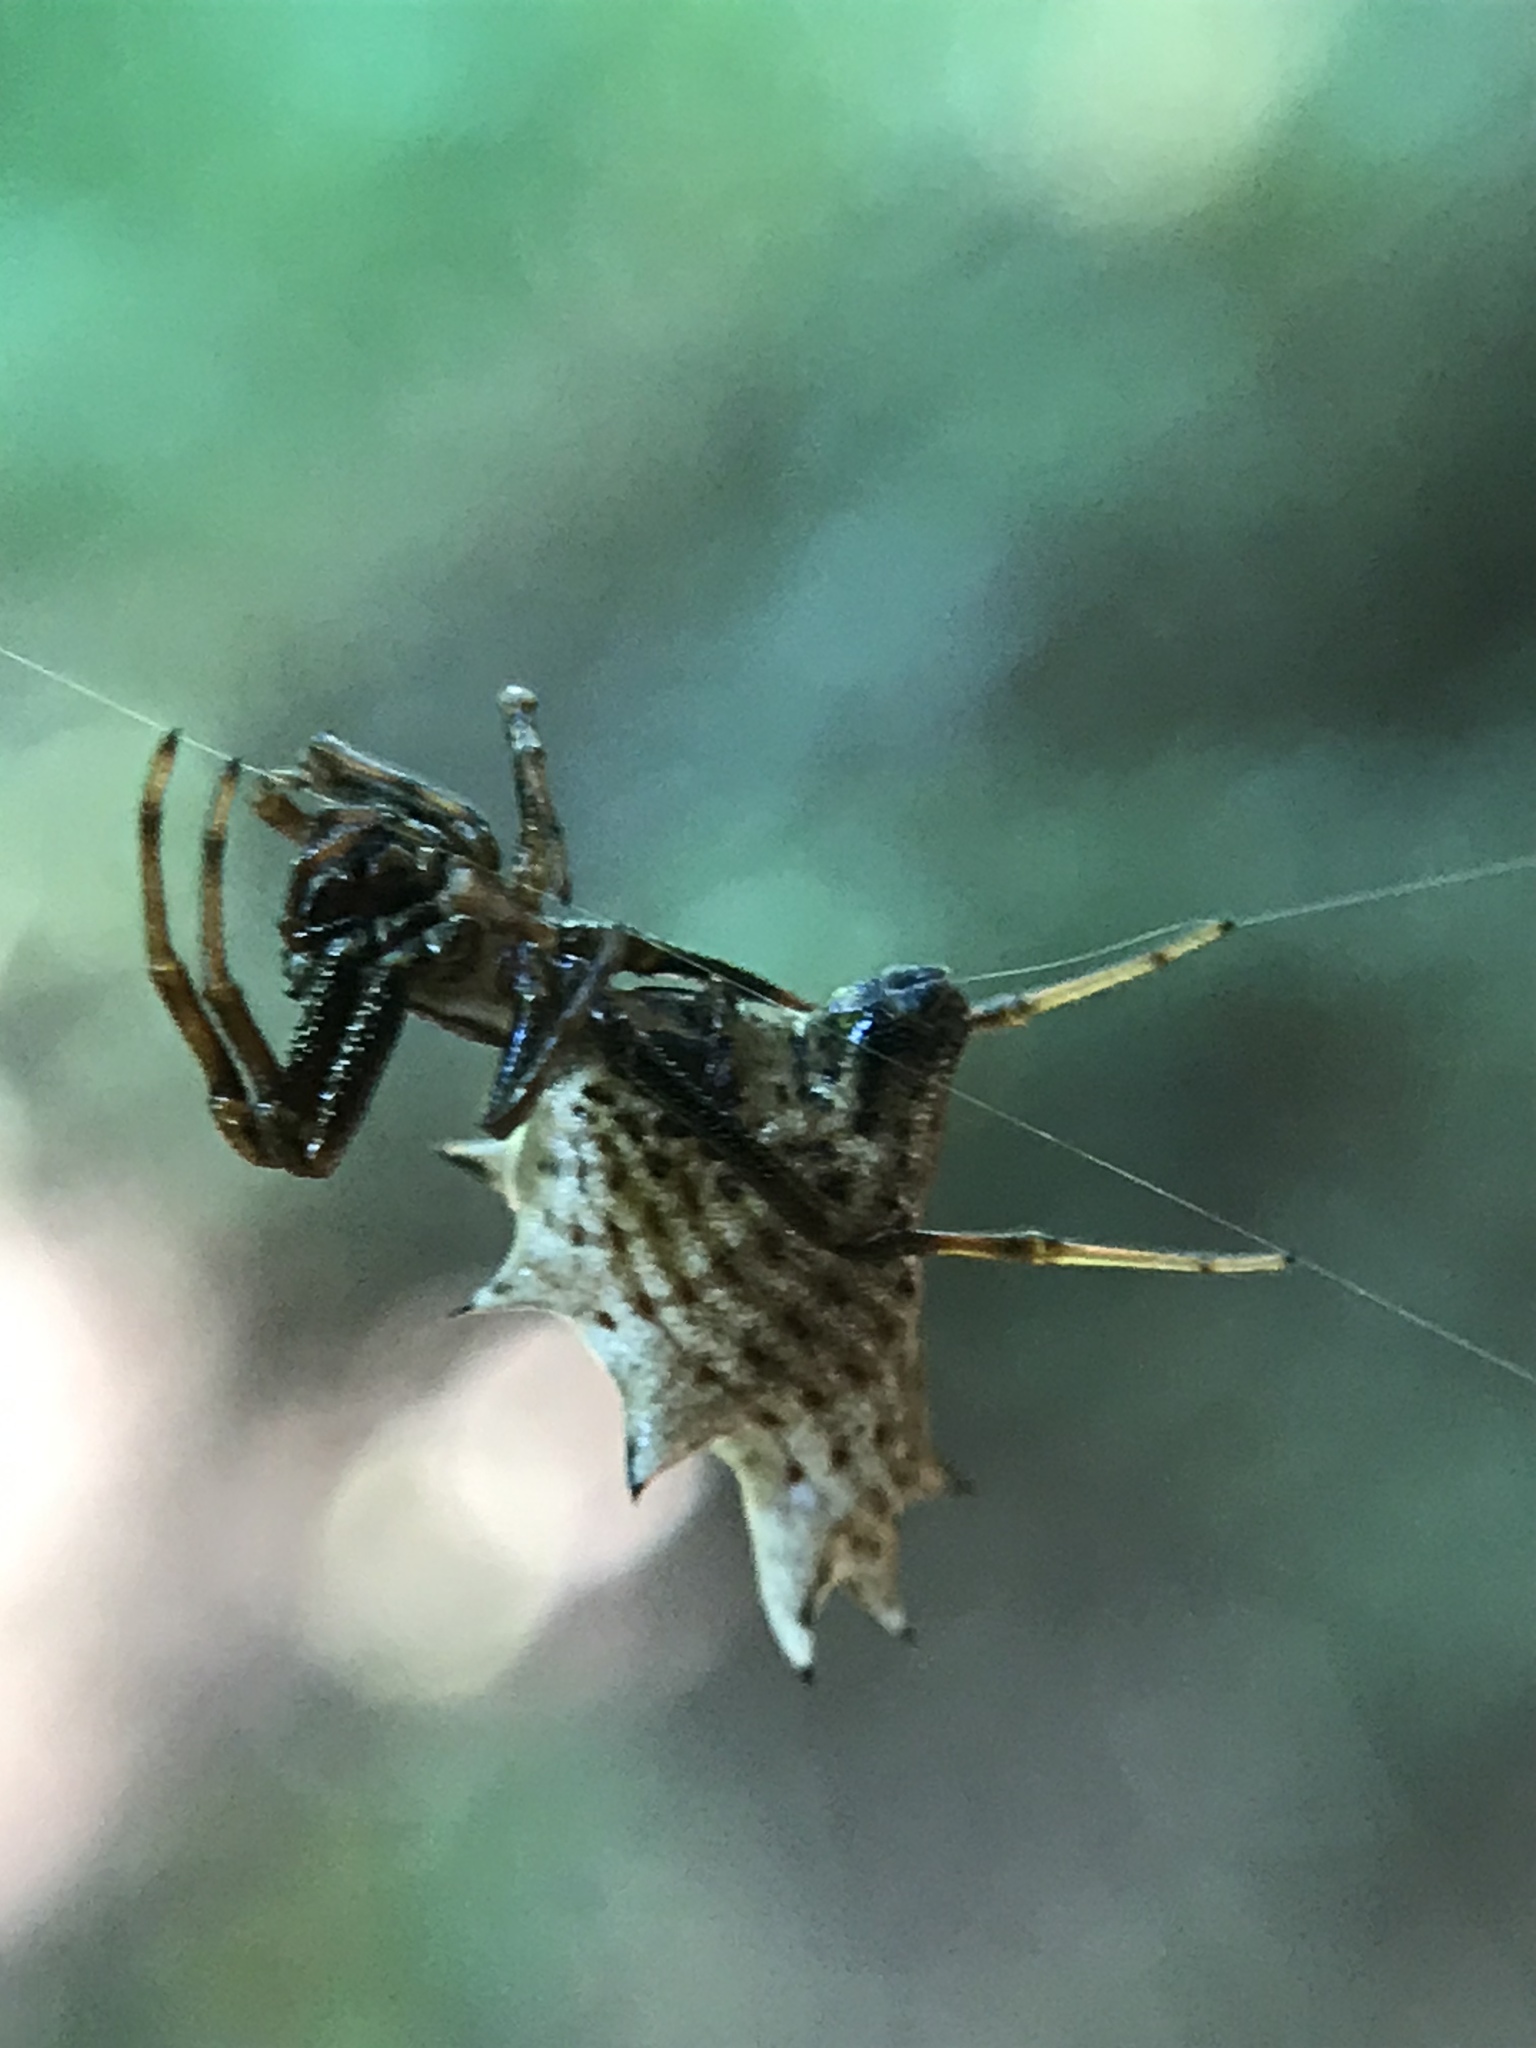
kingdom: Animalia
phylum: Arthropoda
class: Arachnida
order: Araneae
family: Araneidae
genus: Micrathena
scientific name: Micrathena gracilis
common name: Orb weavers
